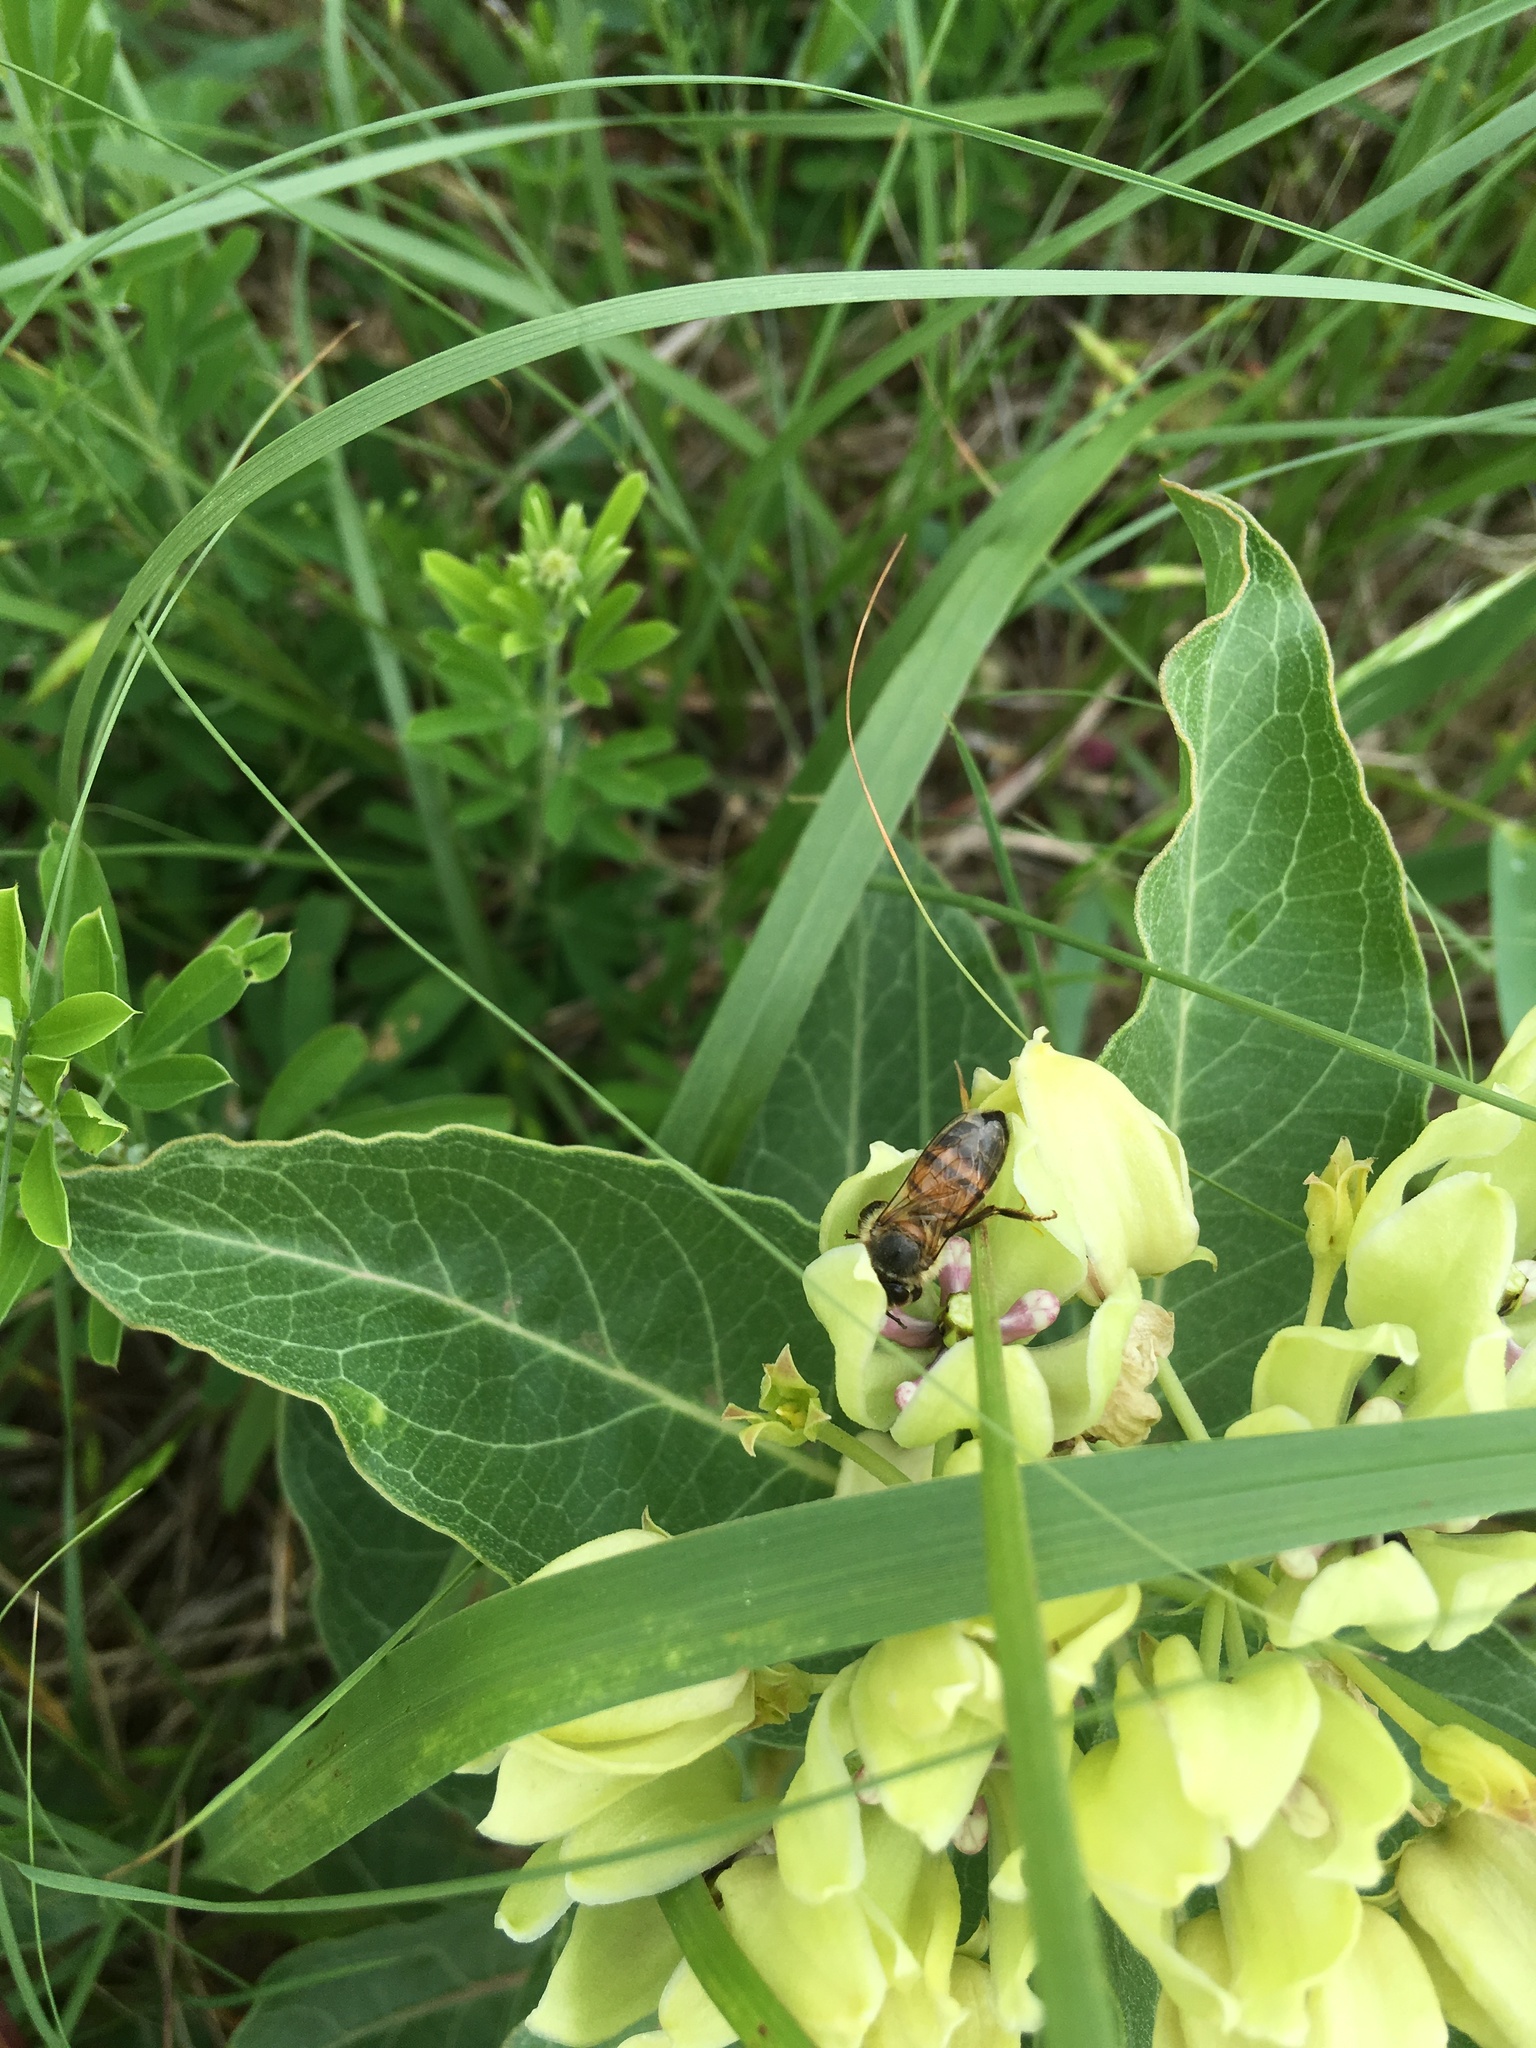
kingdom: Animalia
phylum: Arthropoda
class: Insecta
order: Hymenoptera
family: Apidae
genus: Apis
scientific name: Apis mellifera
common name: Honey bee
